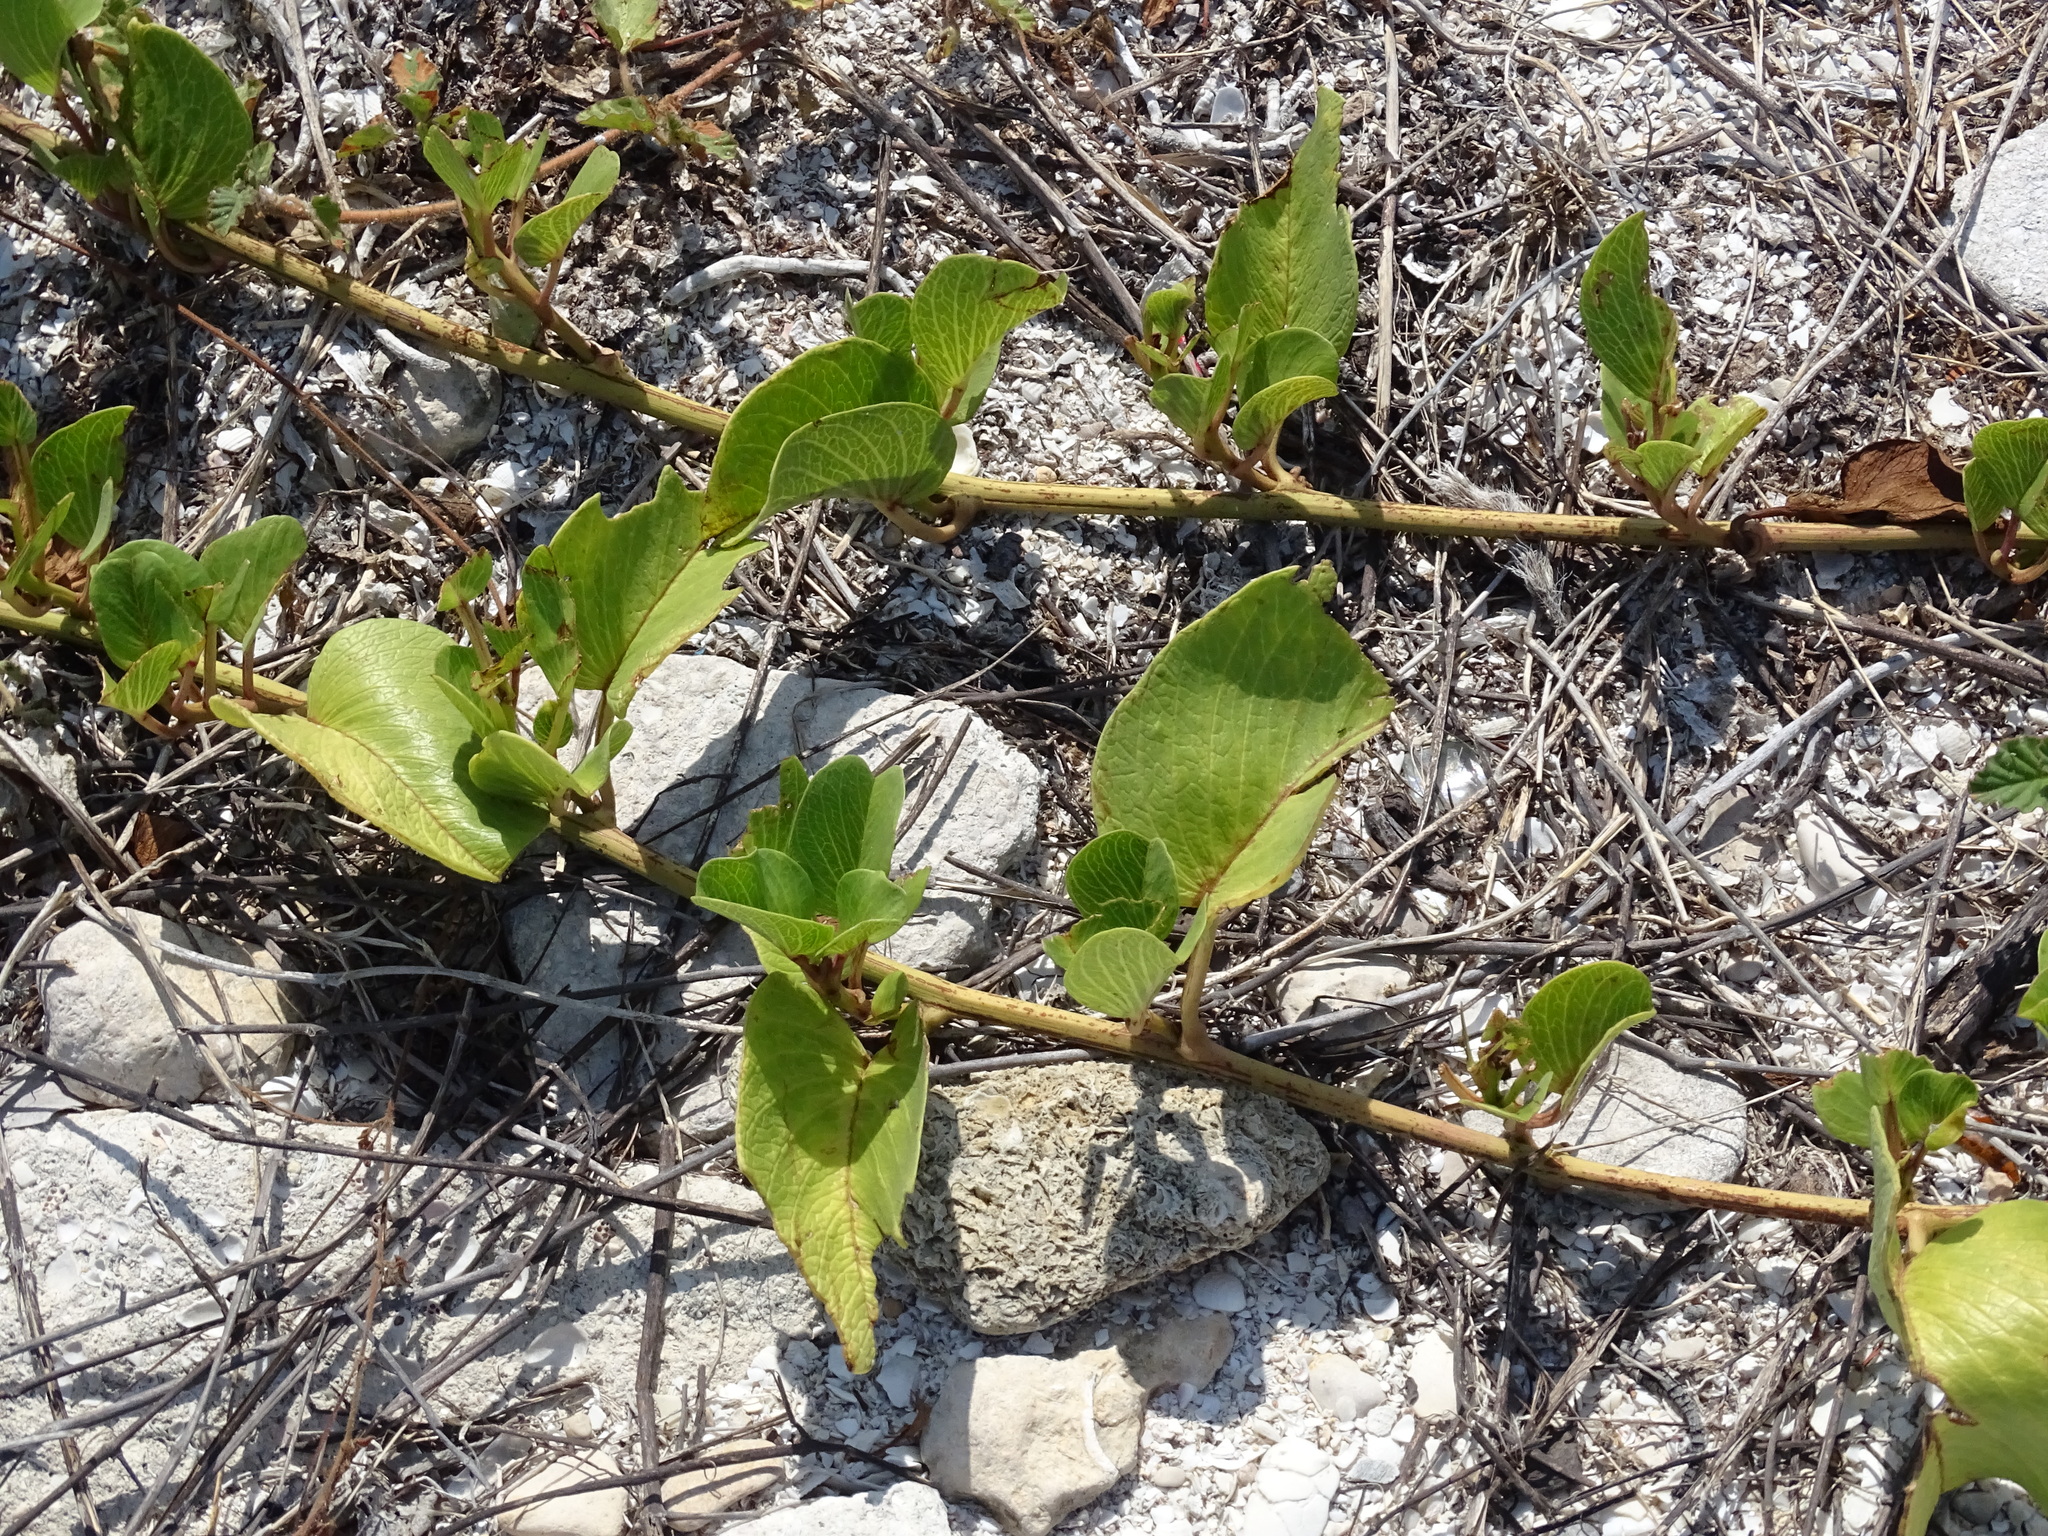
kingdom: Plantae
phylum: Tracheophyta
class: Magnoliopsida
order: Solanales
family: Convolvulaceae
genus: Ipomoea
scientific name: Ipomoea pes-caprae
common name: Beach morning glory
